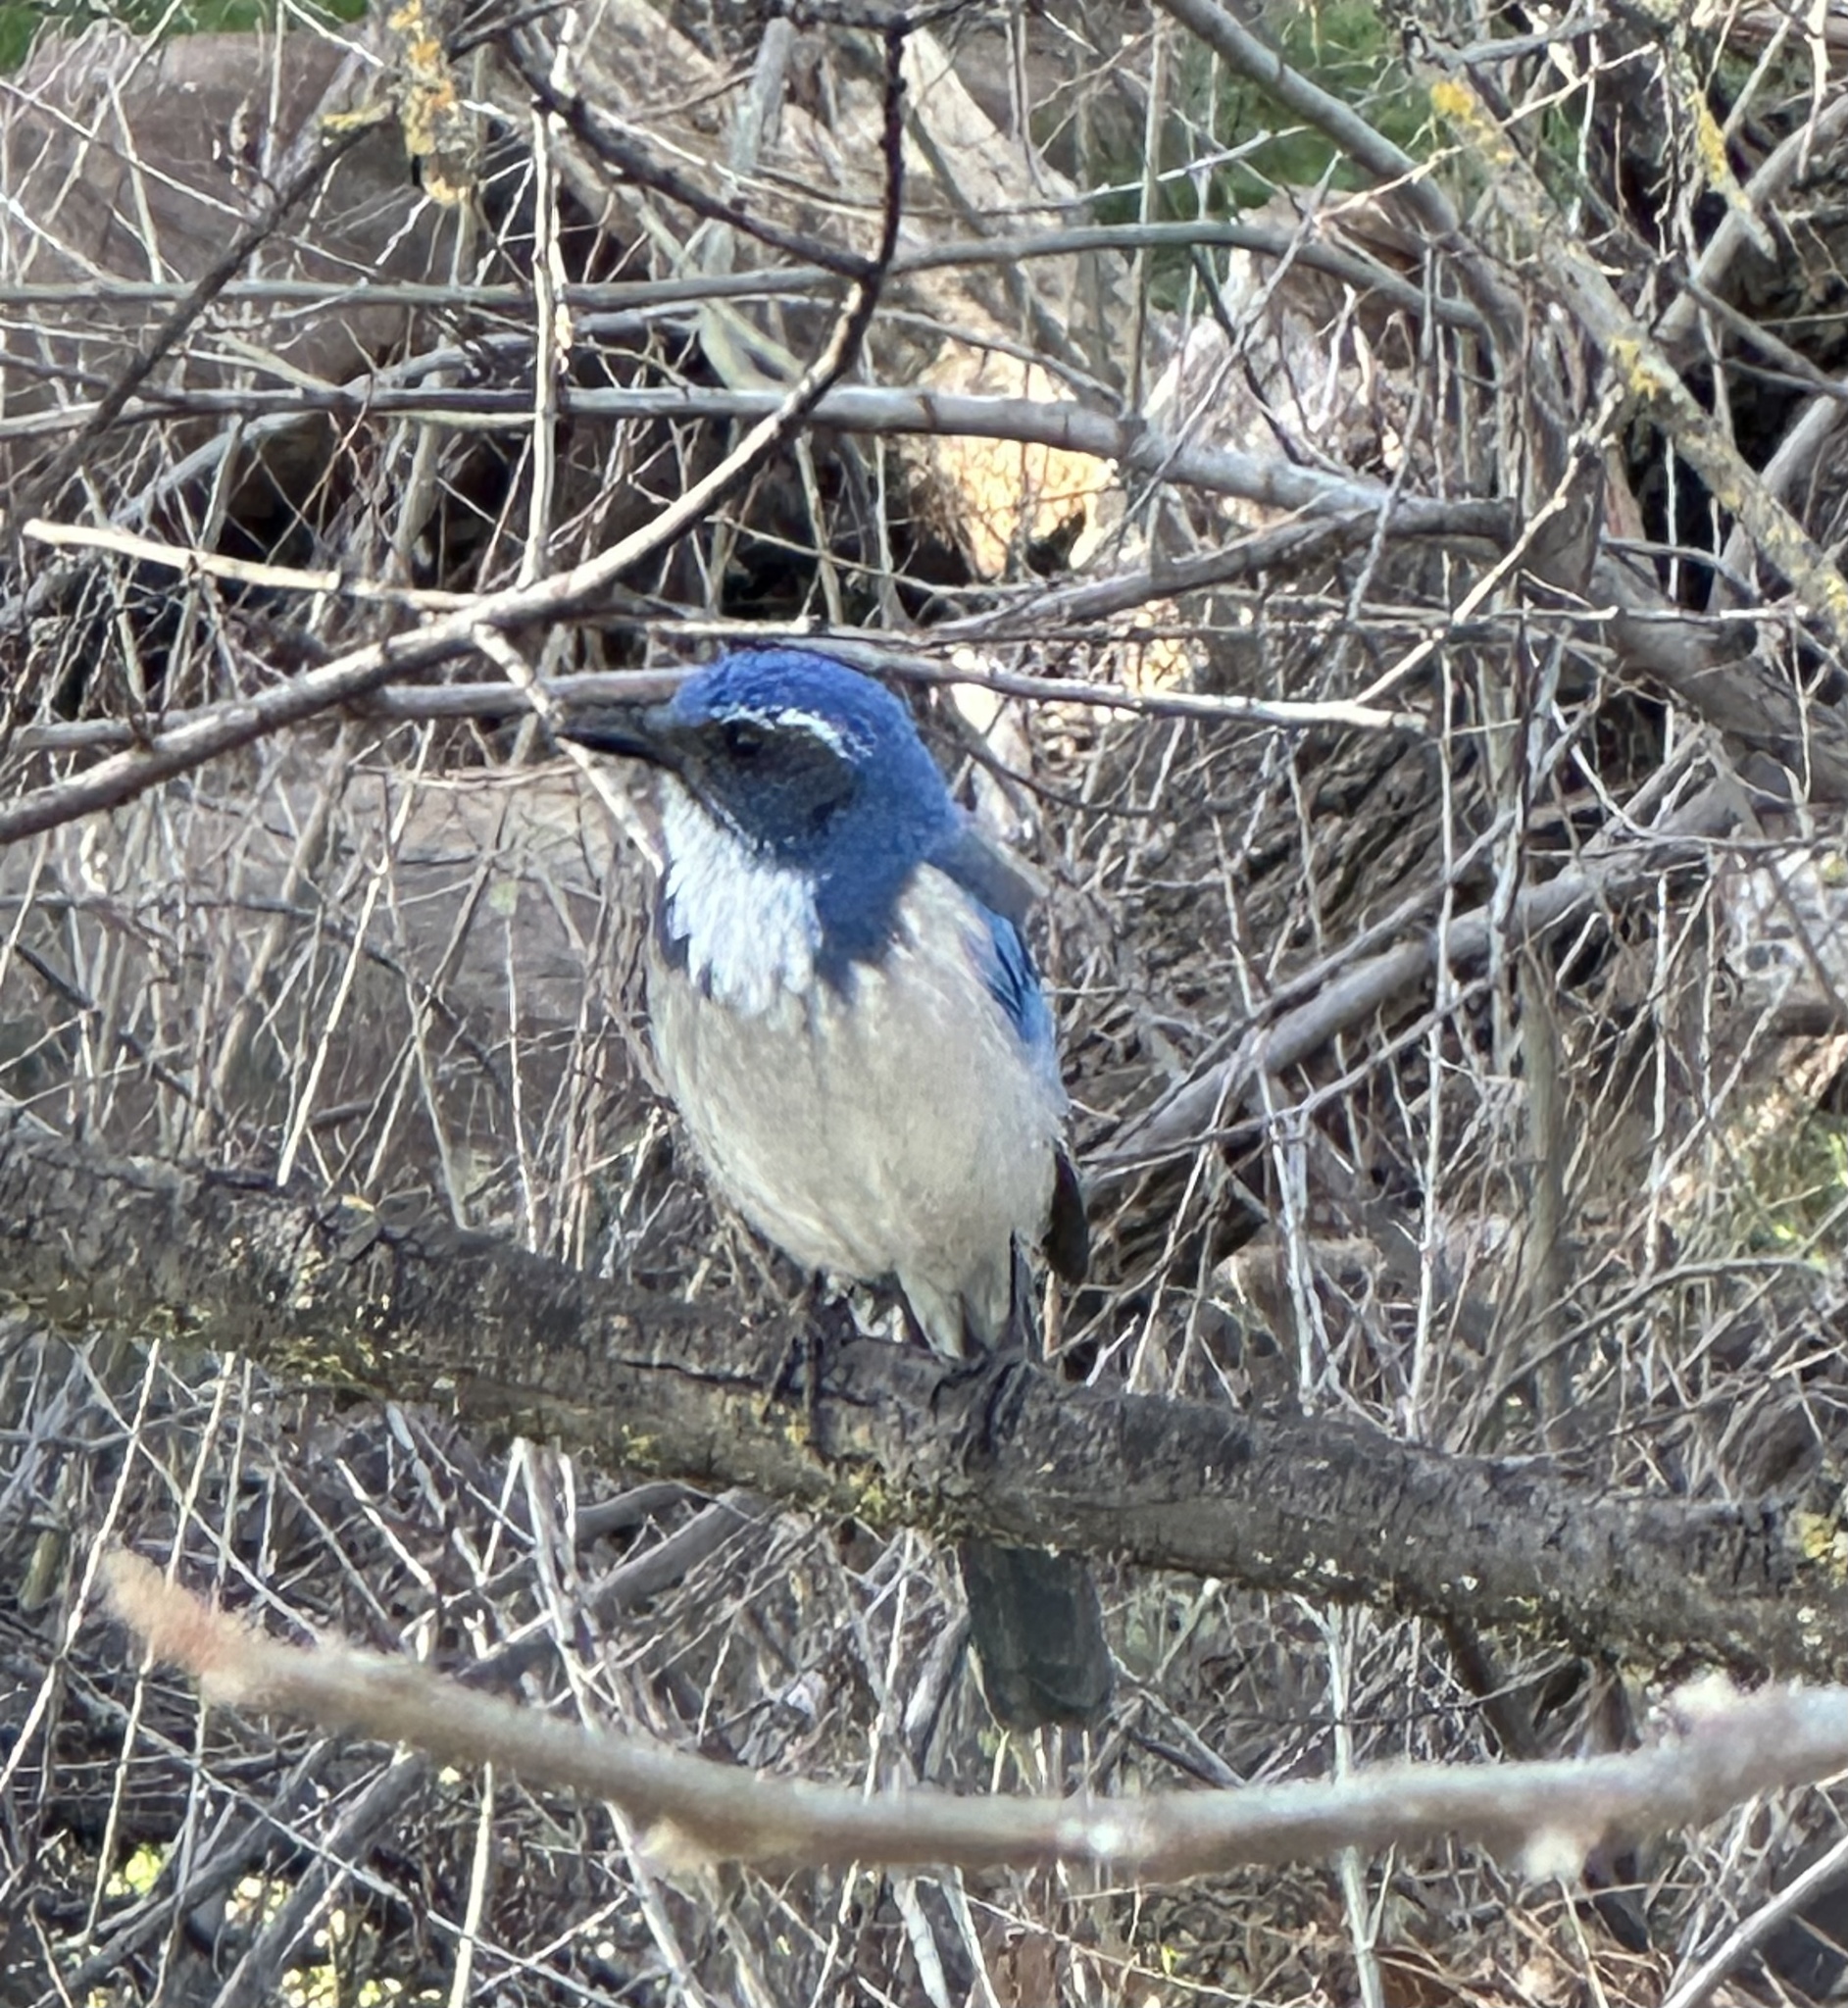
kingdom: Animalia
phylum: Chordata
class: Aves
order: Passeriformes
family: Corvidae
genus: Aphelocoma
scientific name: Aphelocoma californica
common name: California scrub-jay
